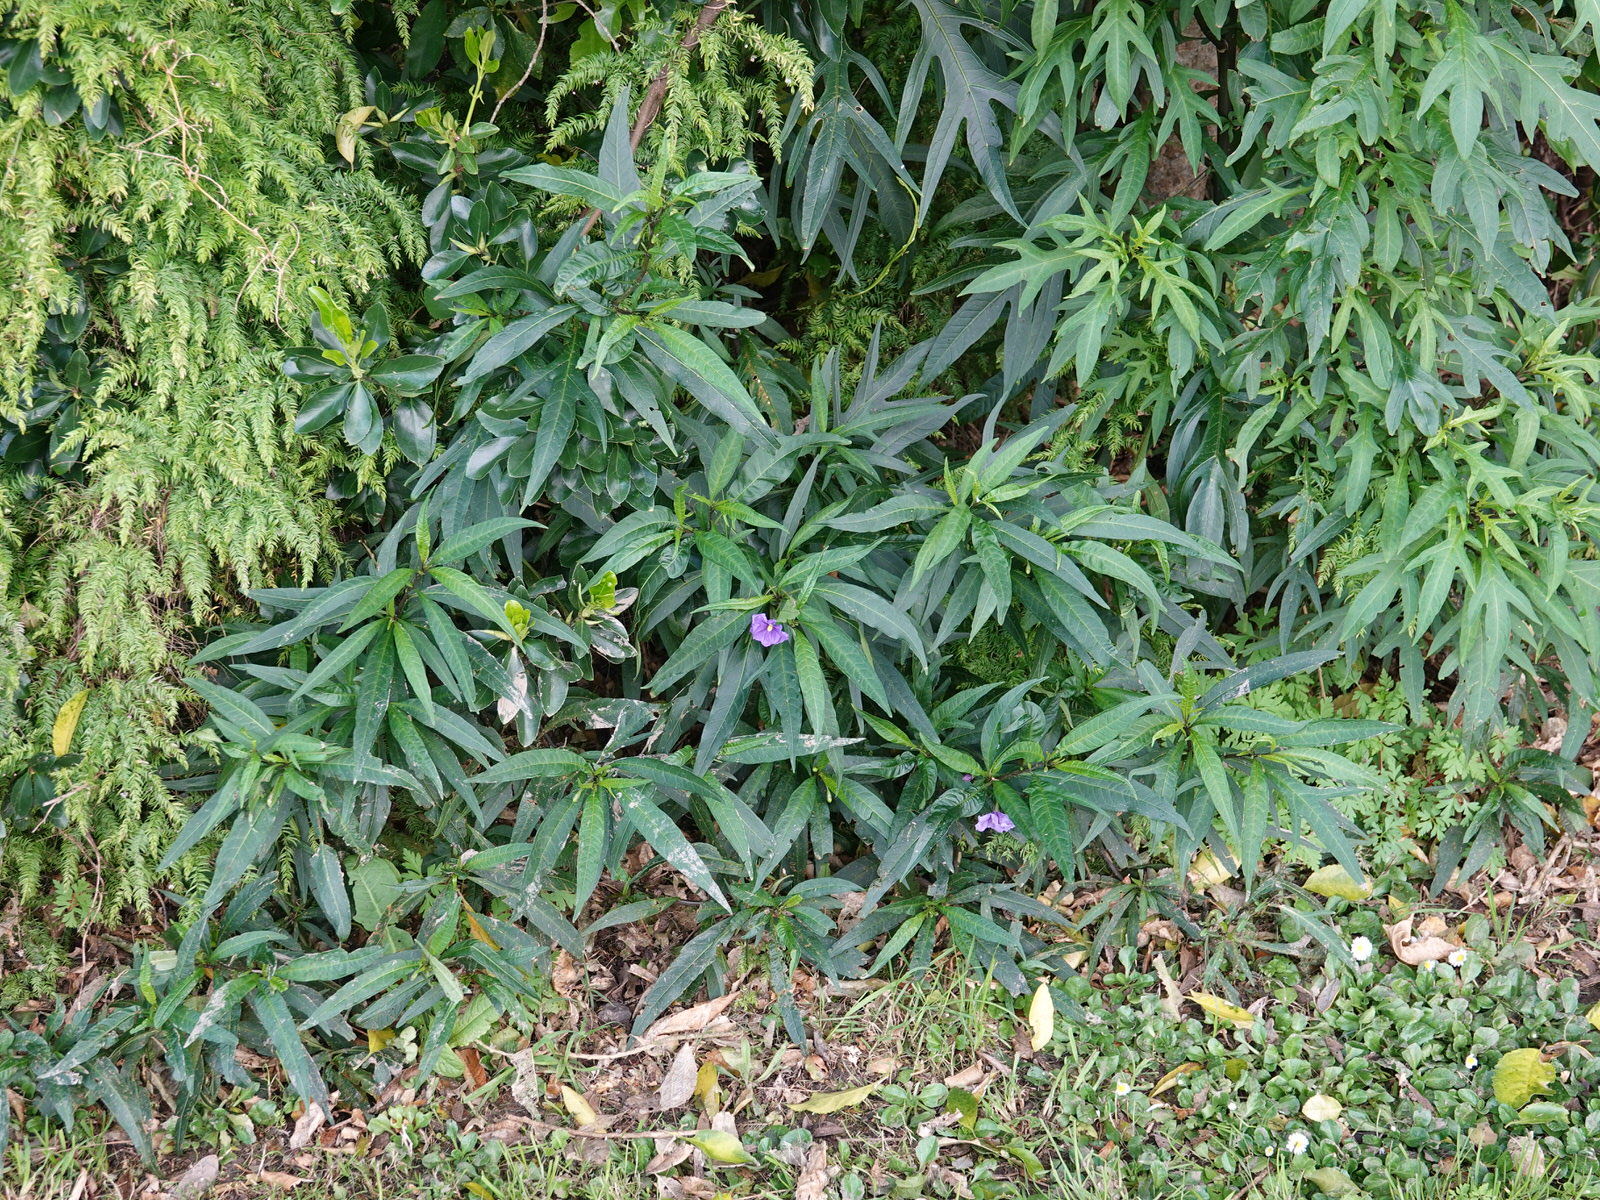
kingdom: Plantae
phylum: Tracheophyta
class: Magnoliopsida
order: Solanales
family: Solanaceae
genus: Solanum
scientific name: Solanum laciniatum
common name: Kangaroo-apple
